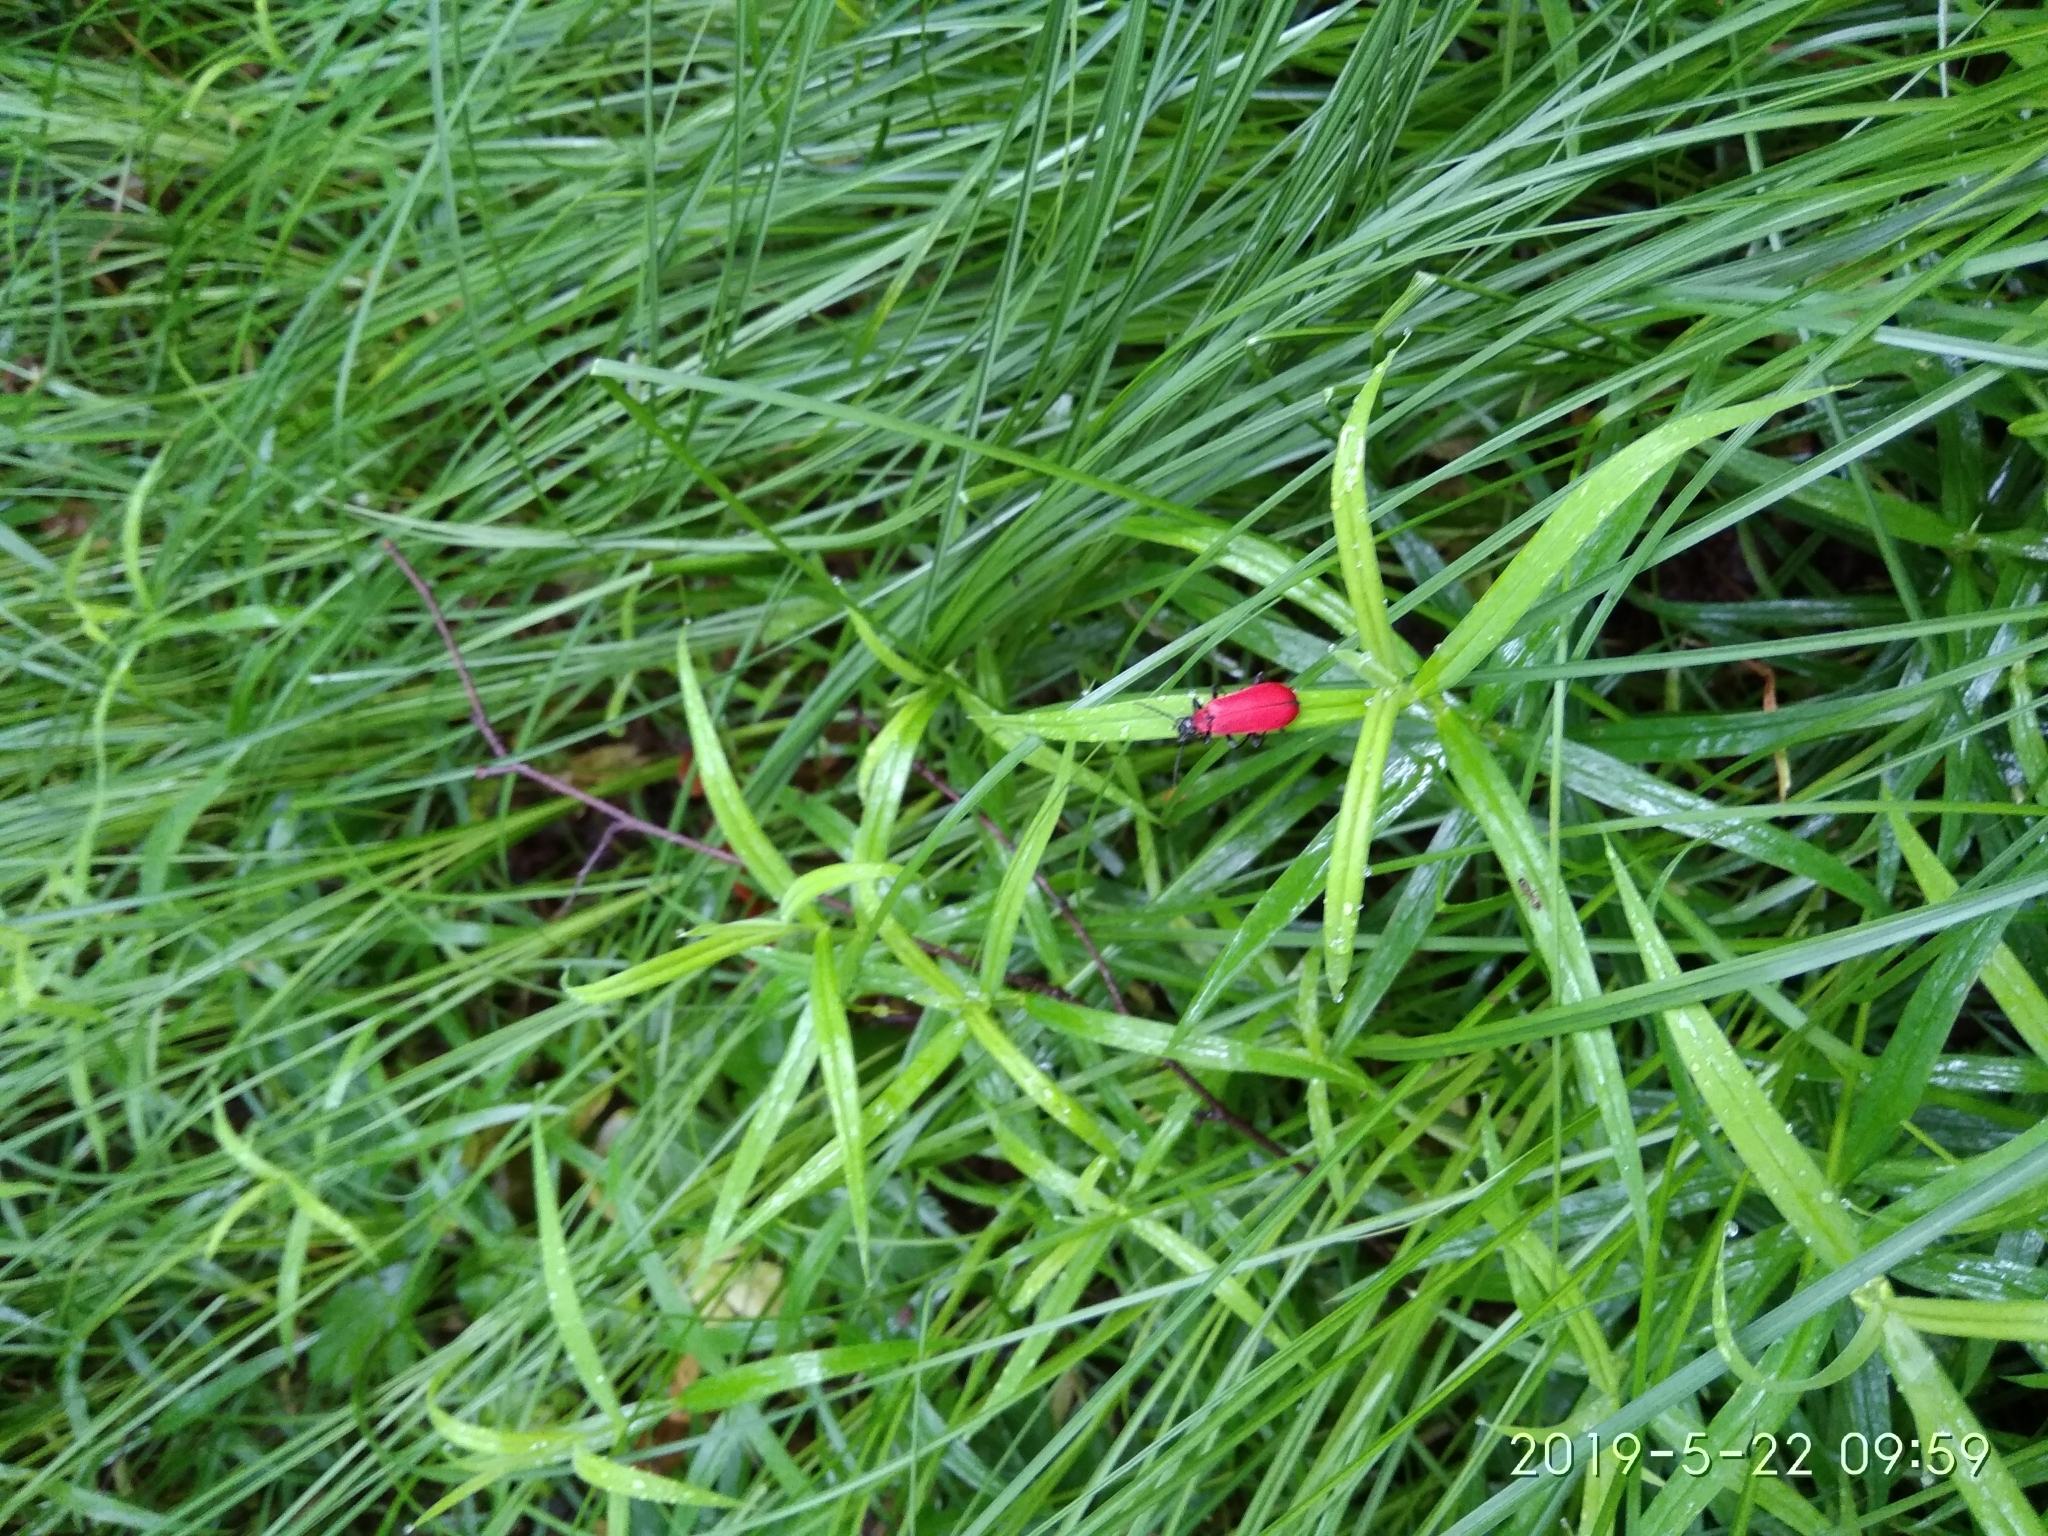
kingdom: Animalia
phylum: Arthropoda
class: Insecta
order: Coleoptera
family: Pyrochroidae
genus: Pyrochroa
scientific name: Pyrochroa coccinea
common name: Black-headed cardinal beetle
